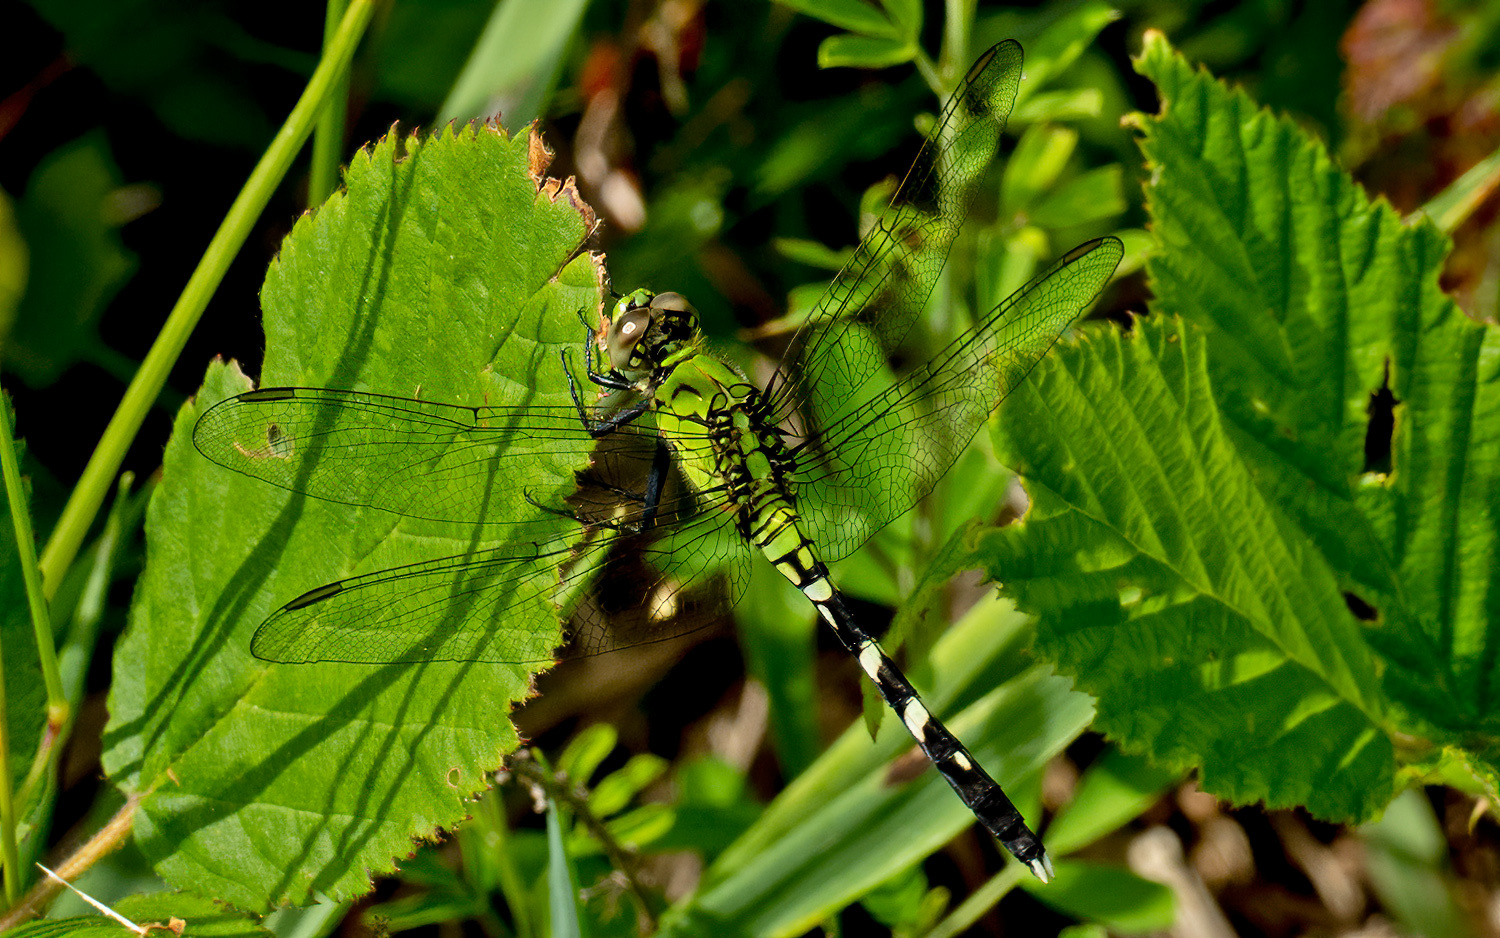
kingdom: Animalia
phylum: Arthropoda
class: Insecta
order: Odonata
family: Libellulidae
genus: Erythemis
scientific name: Erythemis simplicicollis
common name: Eastern pondhawk
